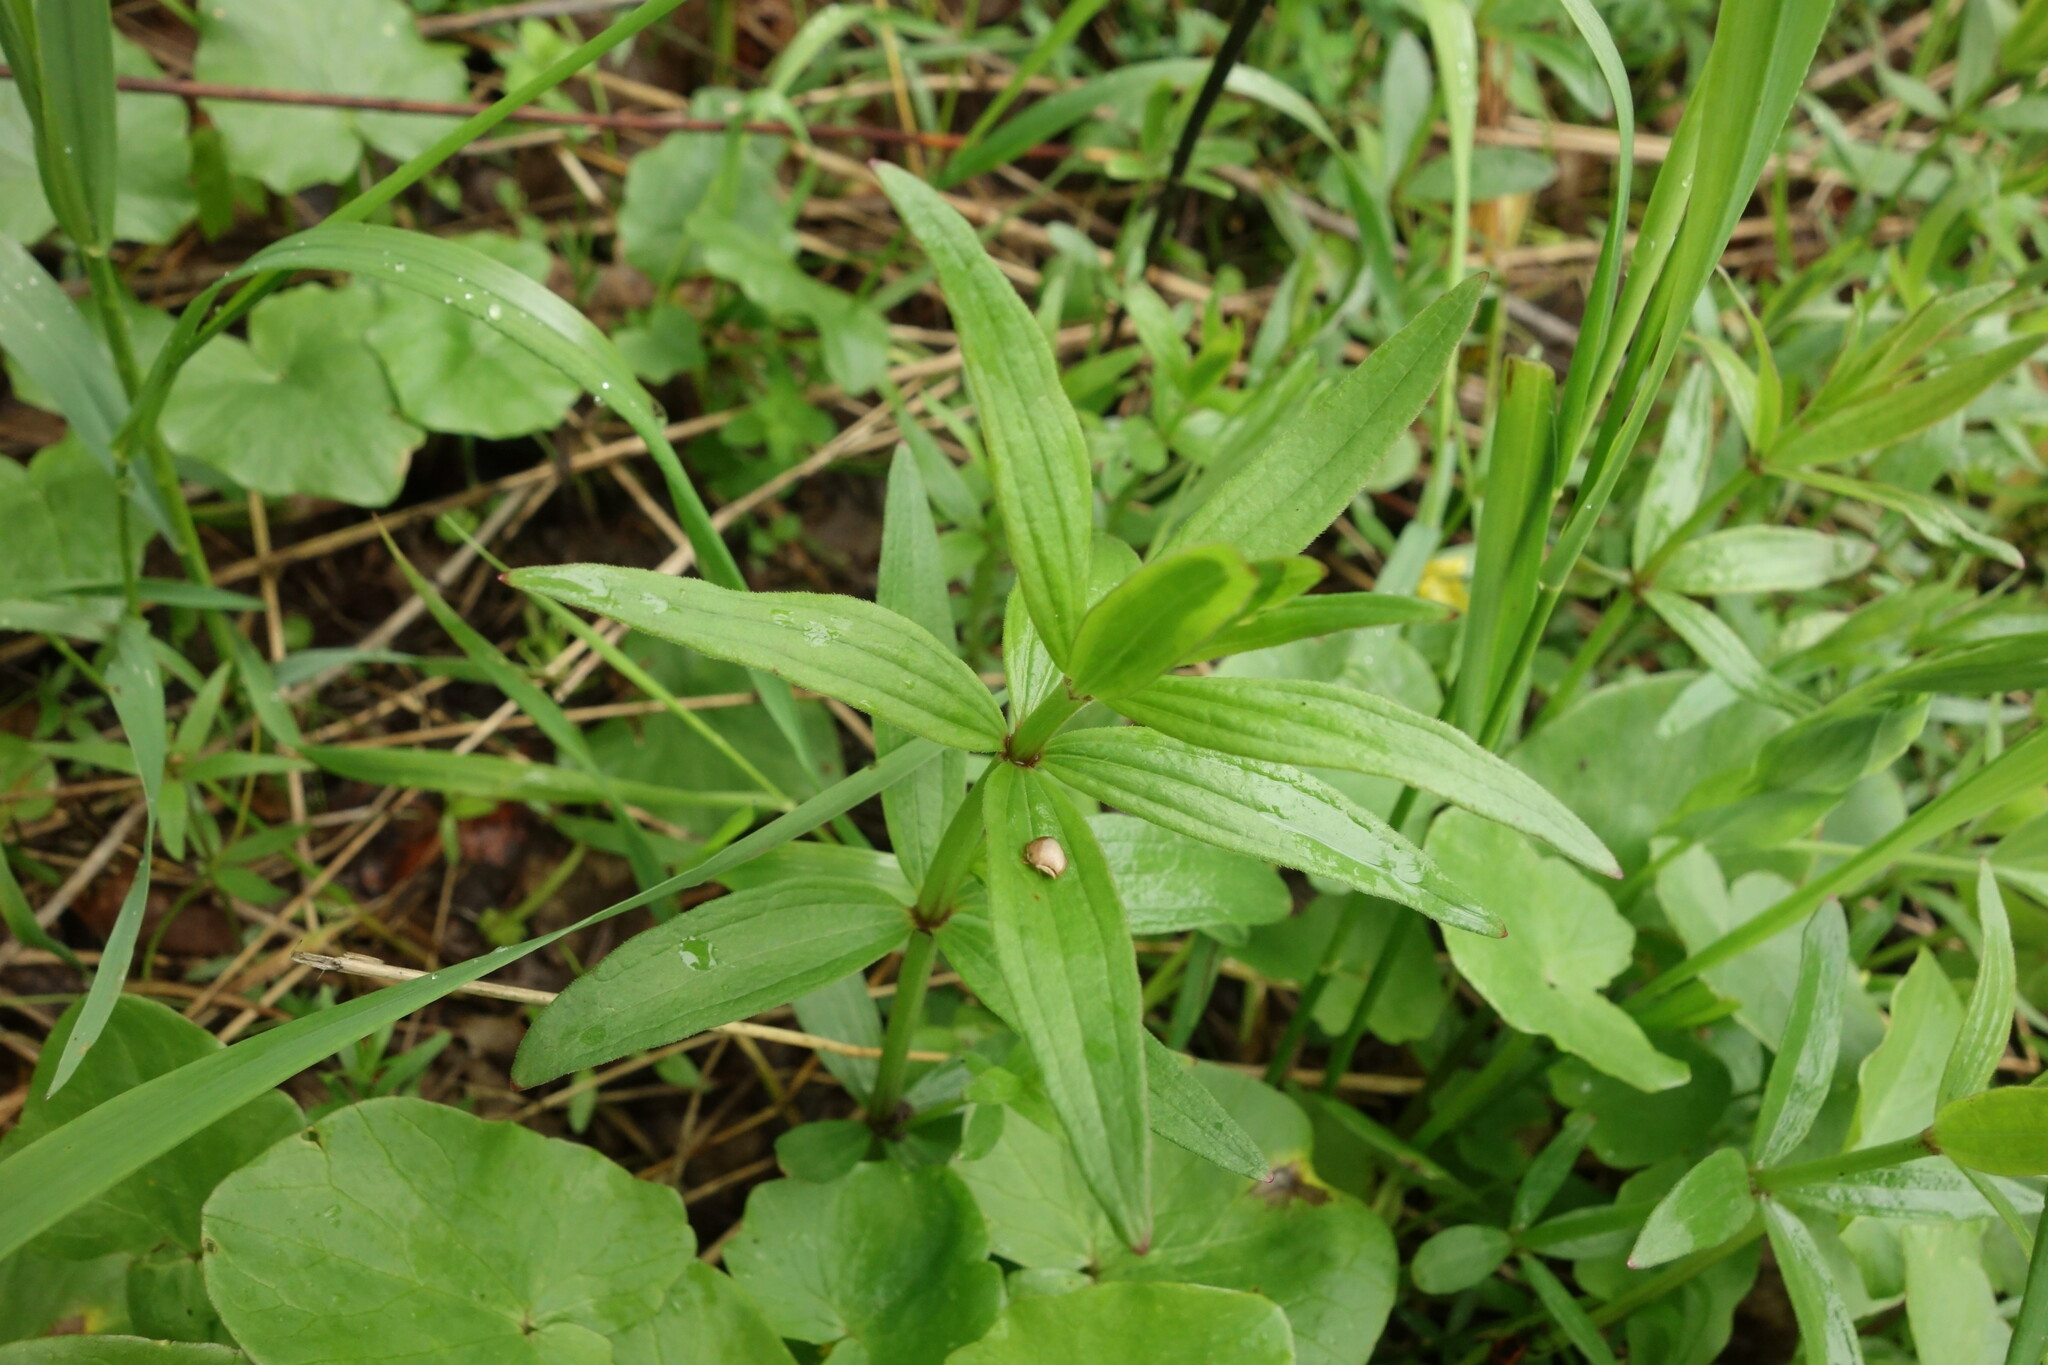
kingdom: Plantae
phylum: Tracheophyta
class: Magnoliopsida
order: Gentianales
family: Rubiaceae
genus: Galium
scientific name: Galium rubioides
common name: European bedstraw
